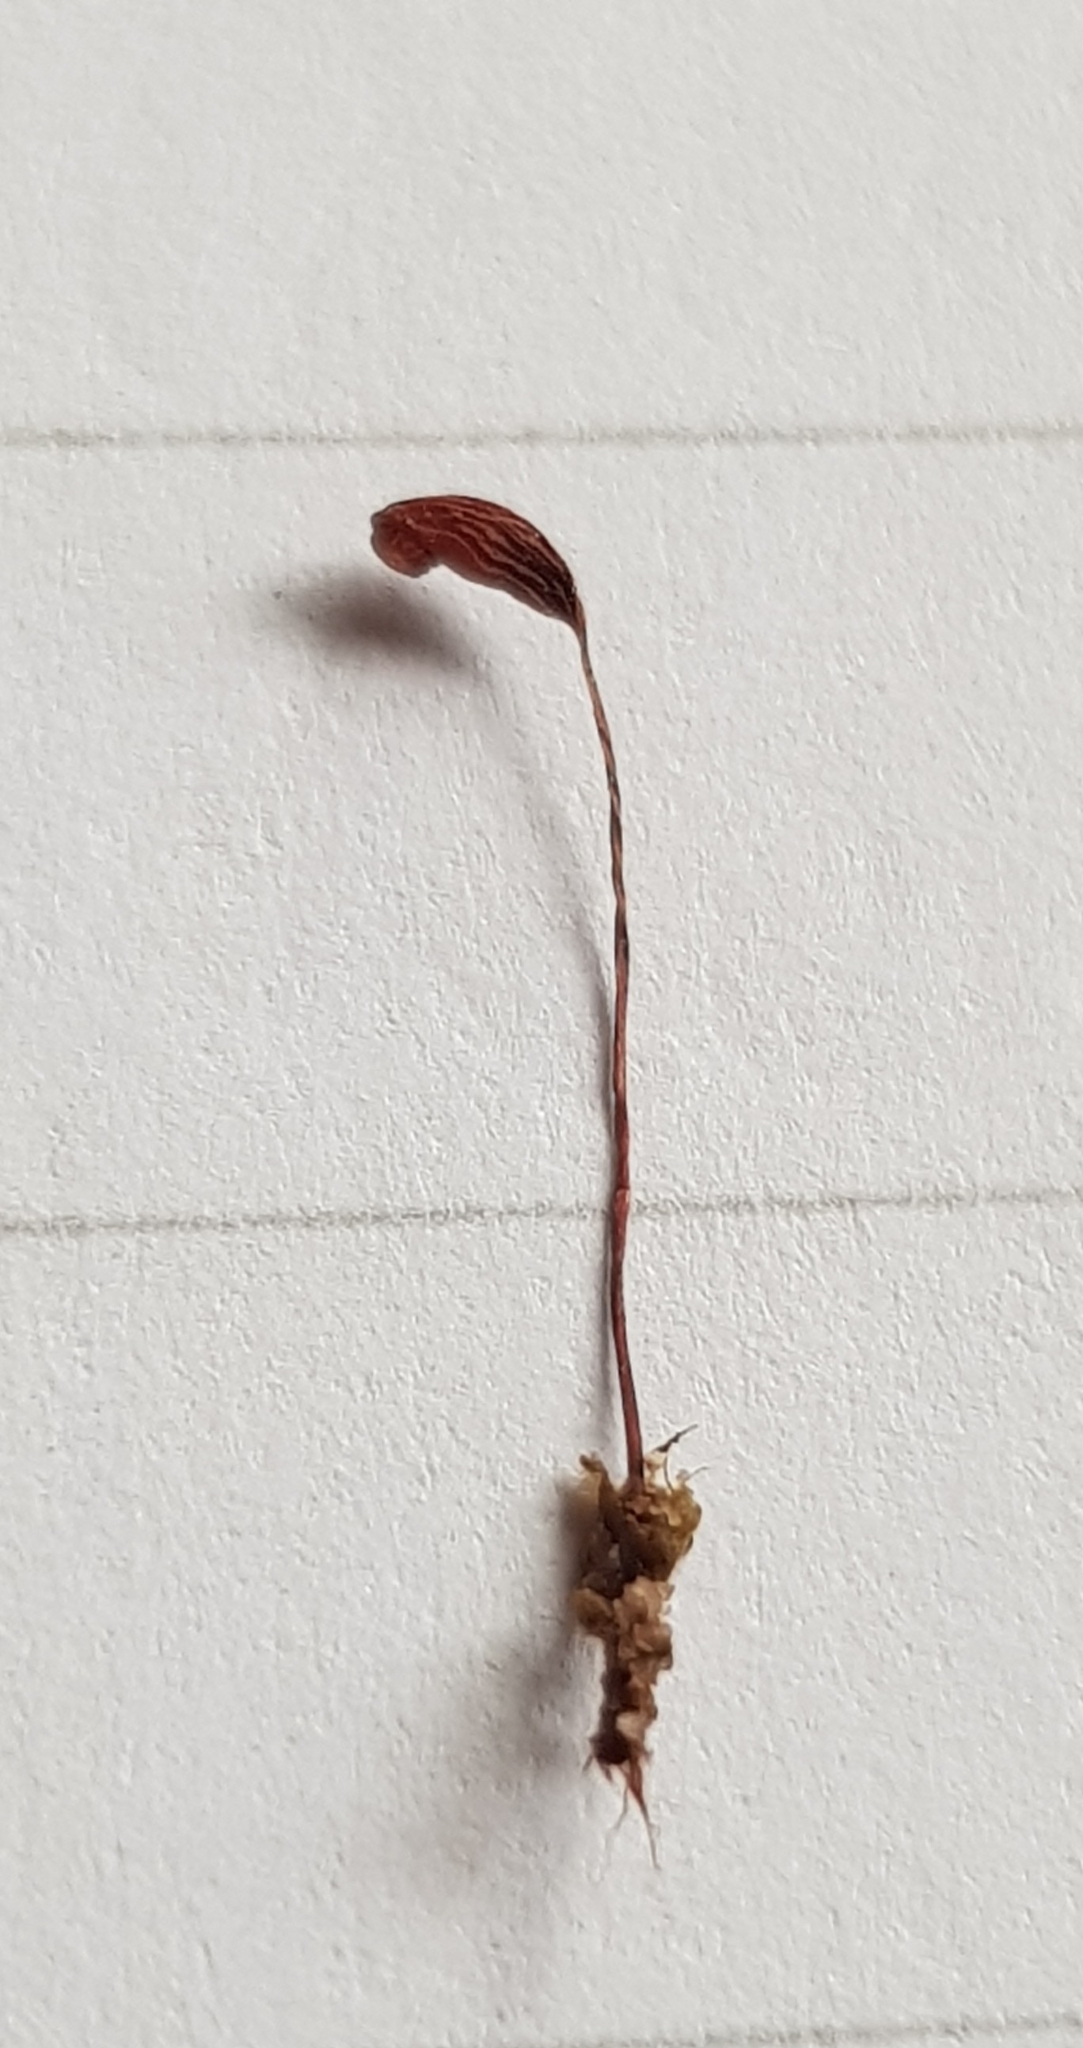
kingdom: Plantae
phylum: Bryophyta
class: Bryopsida
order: Funariales
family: Funariaceae
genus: Funaria
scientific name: Funaria hygrometrica
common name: Common cord moss
